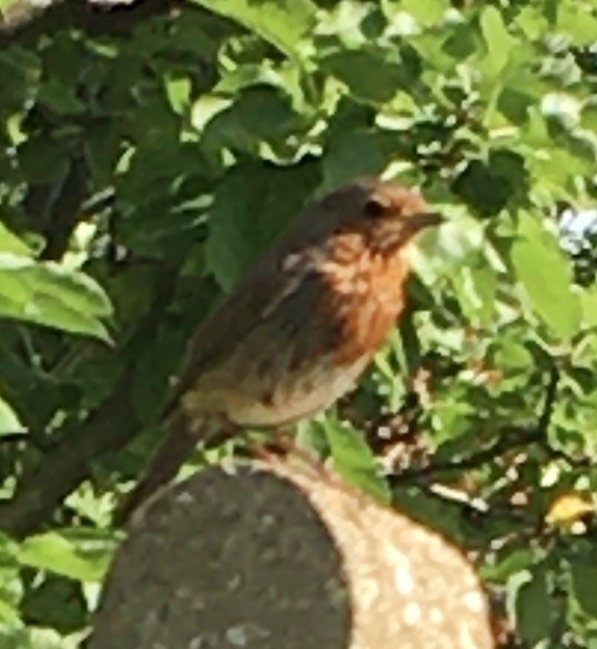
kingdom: Animalia
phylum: Chordata
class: Aves
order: Passeriformes
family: Muscicapidae
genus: Erithacus
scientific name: Erithacus rubecula
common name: European robin
